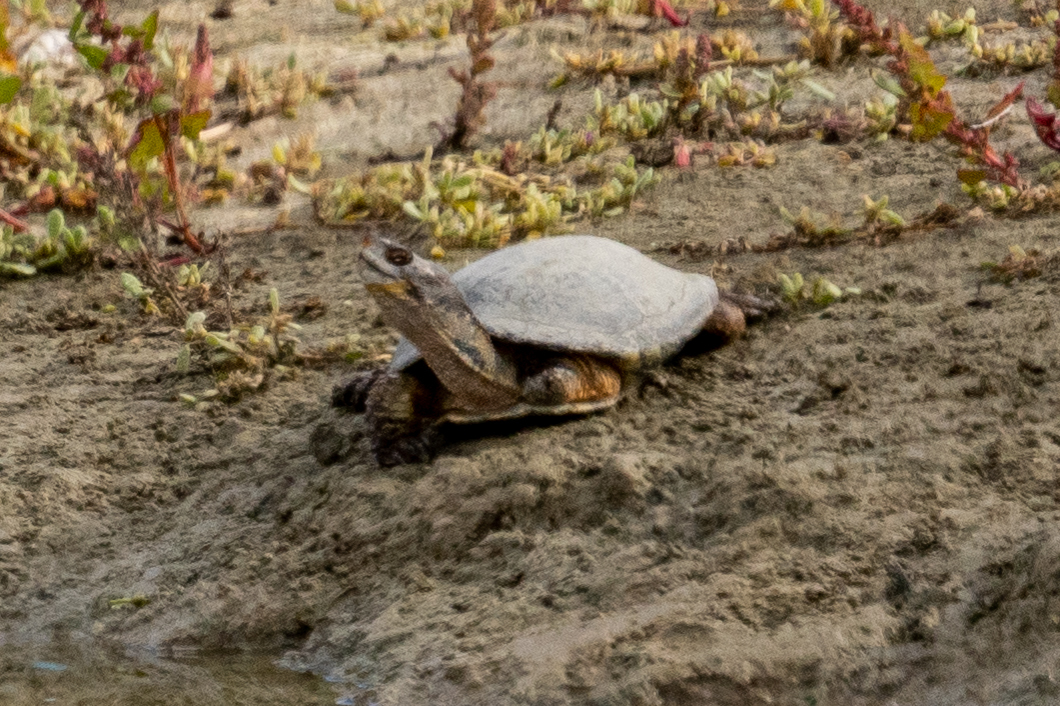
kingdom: Animalia
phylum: Chordata
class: Testudines
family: Emydidae
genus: Actinemys
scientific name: Actinemys marmorata
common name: Western pond turtle
